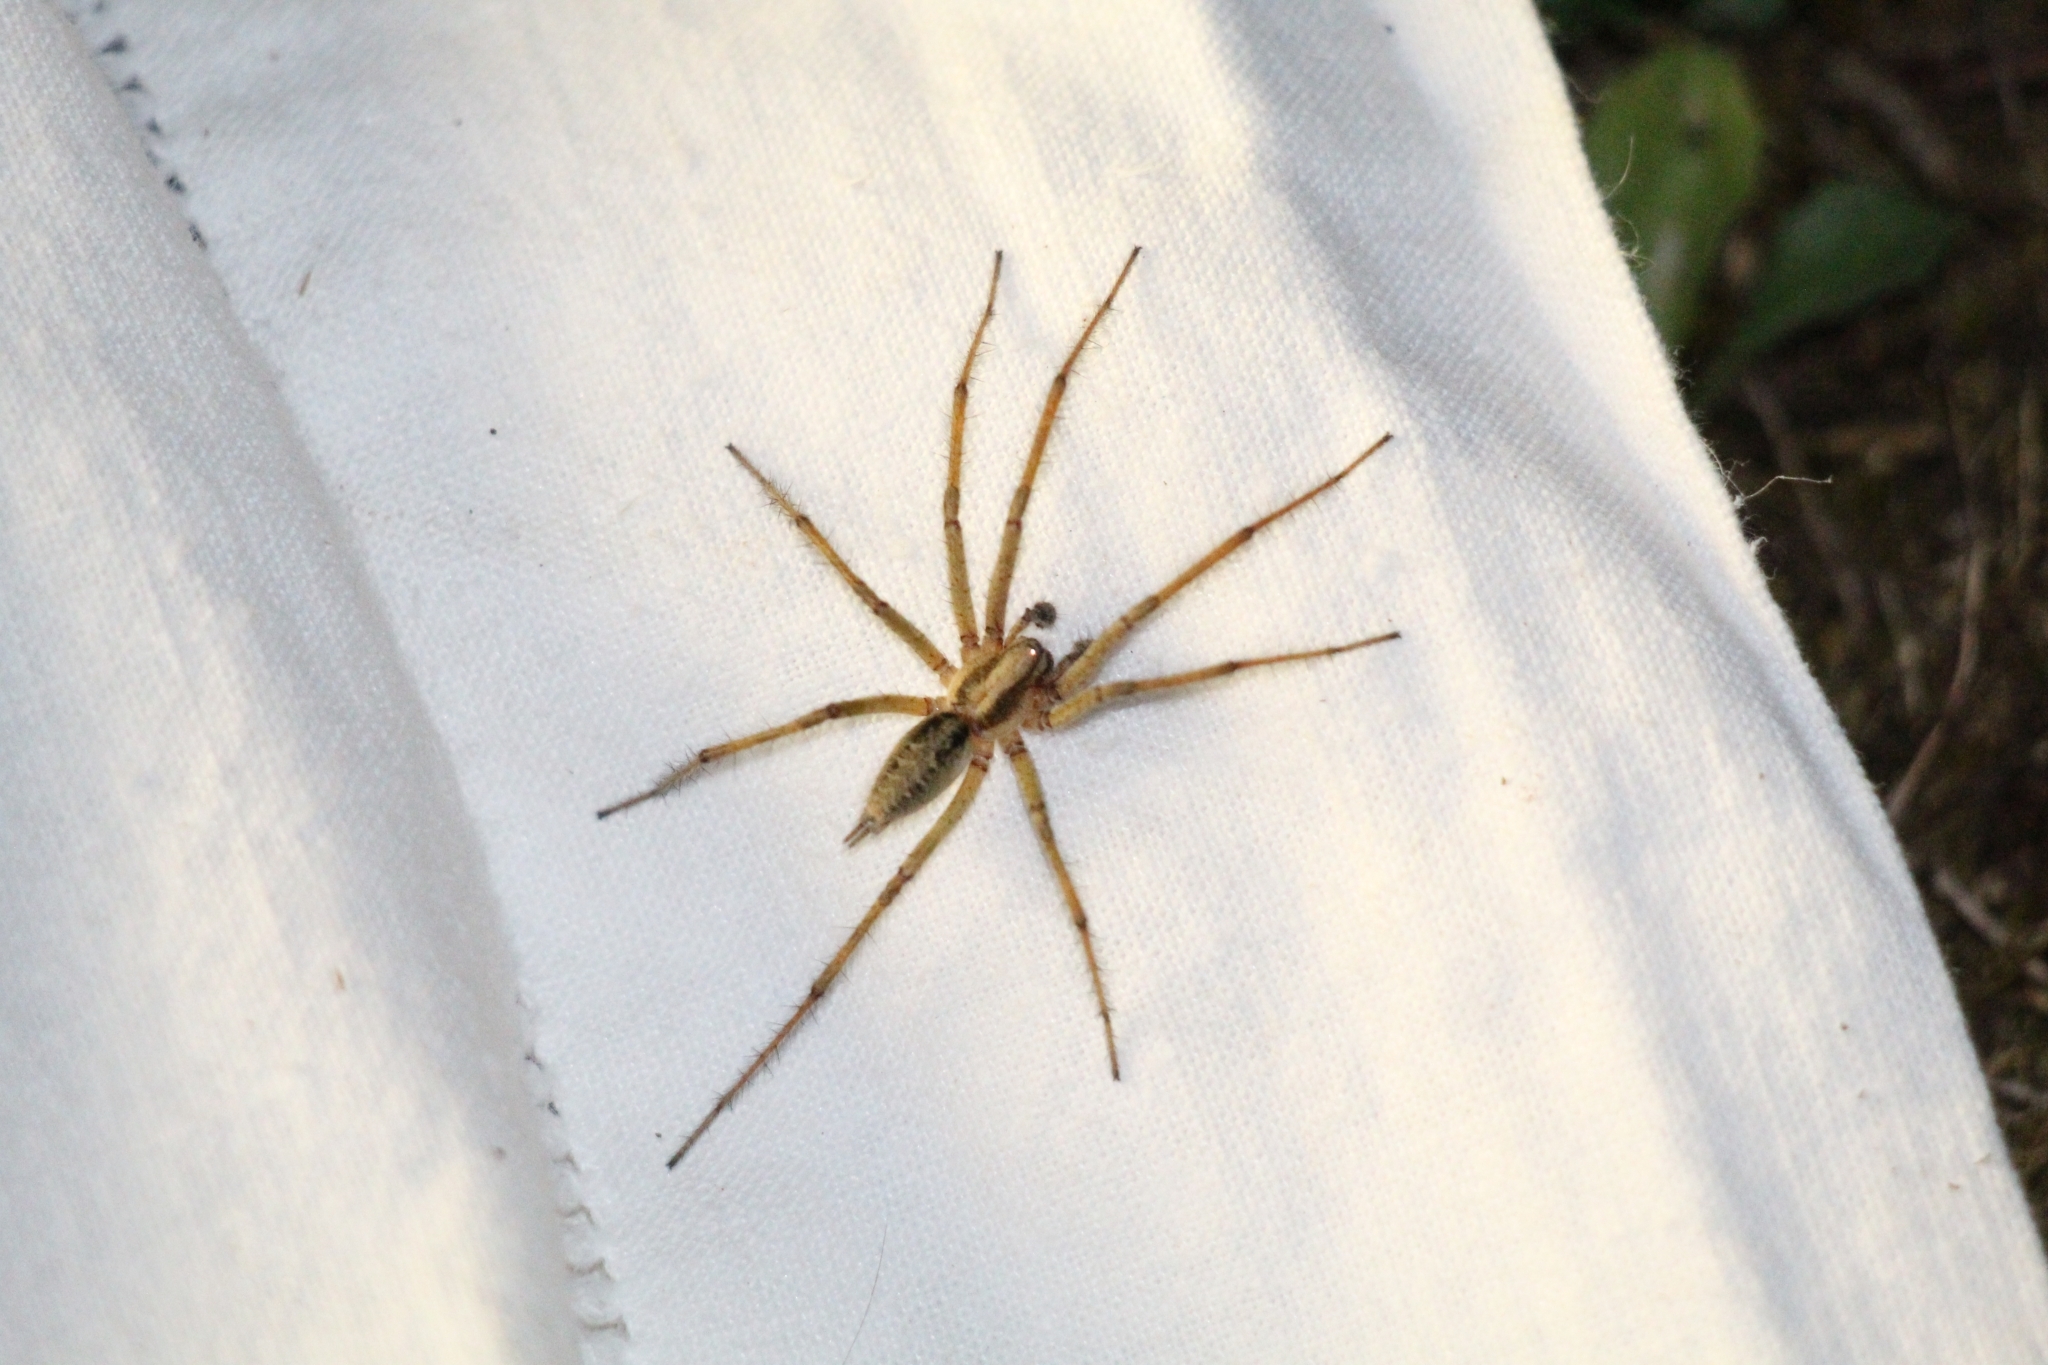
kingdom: Animalia
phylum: Arthropoda
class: Arachnida
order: Araneae
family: Agelenidae
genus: Agelena
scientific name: Agelena labyrinthica
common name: Labyrinth spider
